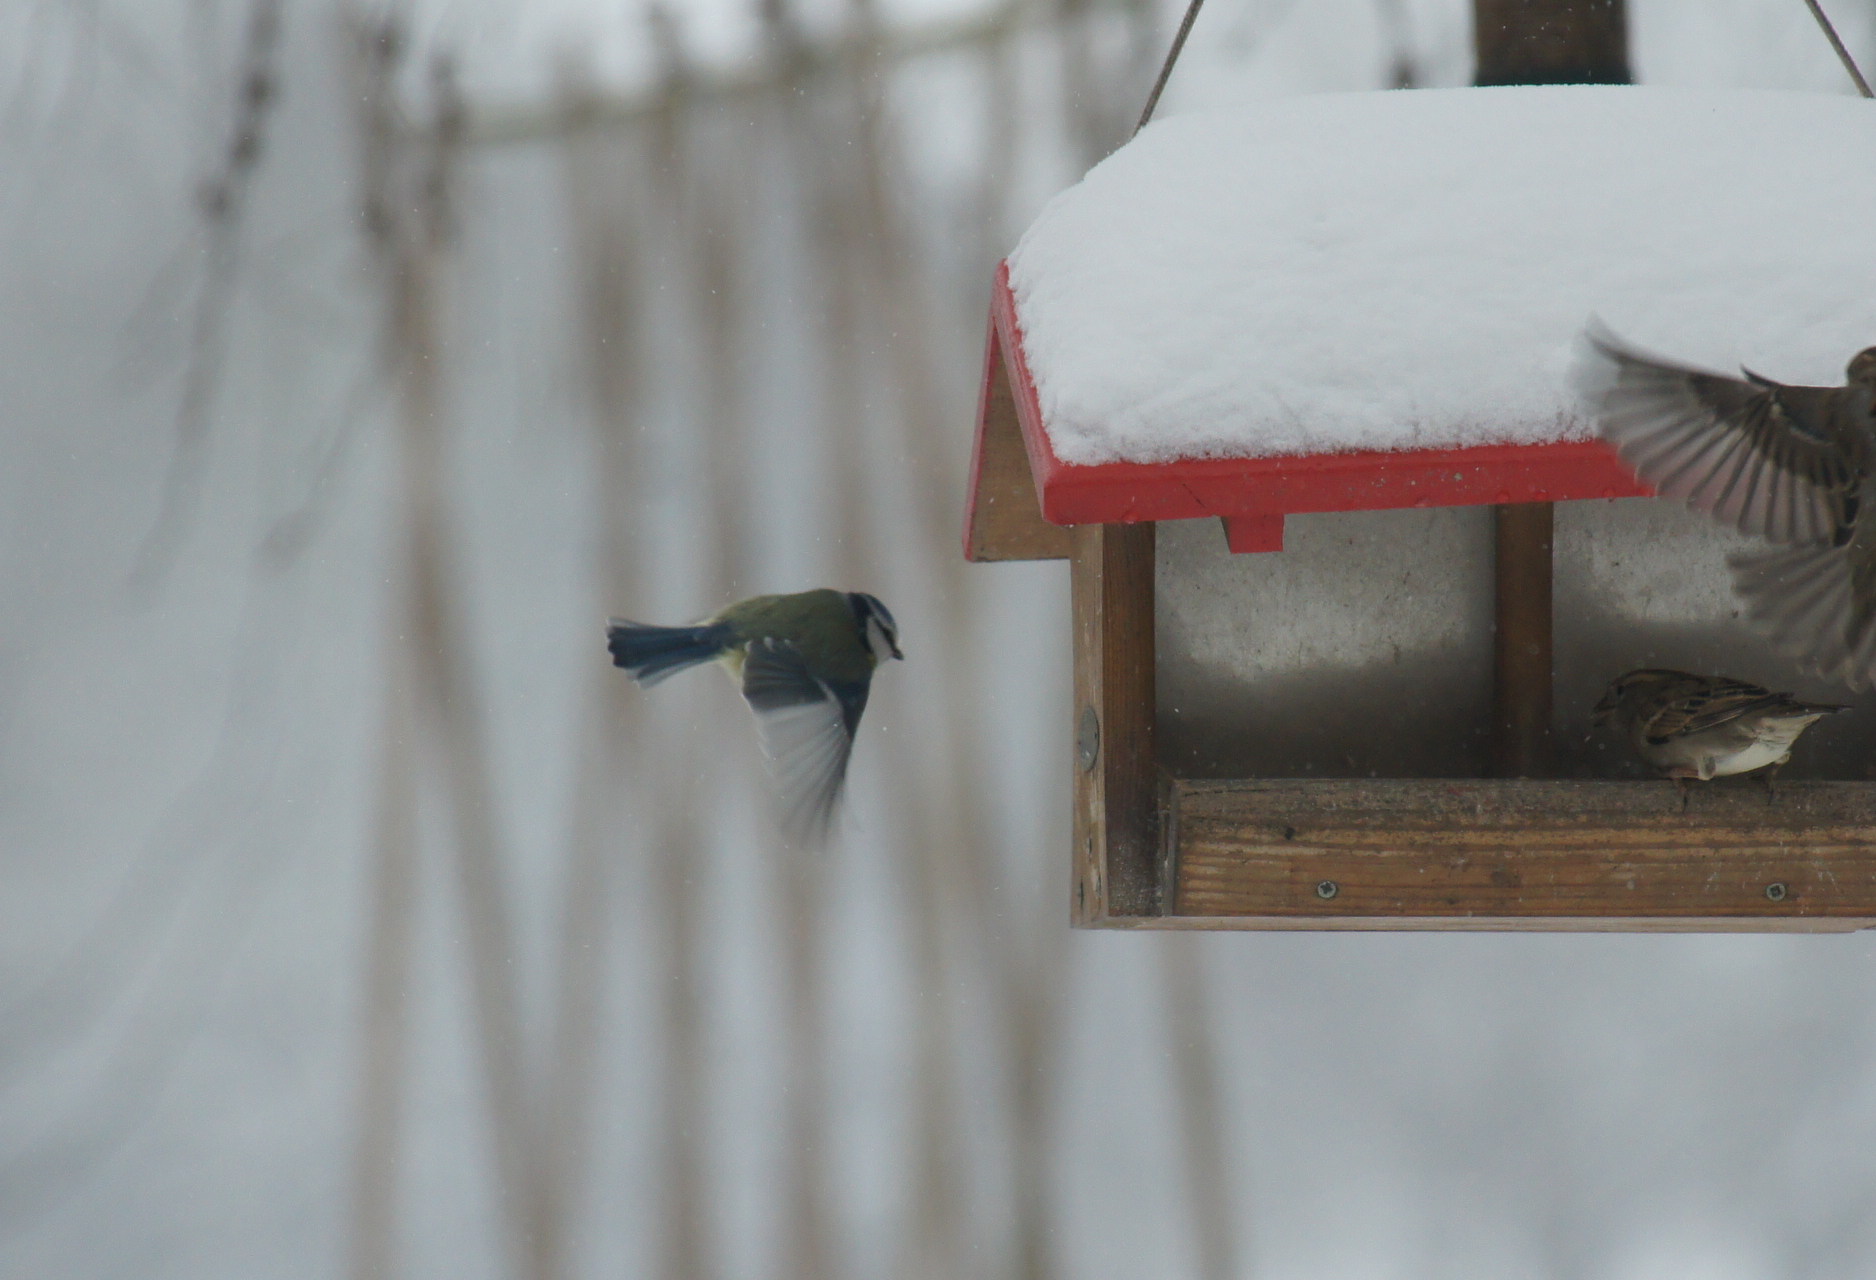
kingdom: Animalia
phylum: Chordata
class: Aves
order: Passeriformes
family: Paridae
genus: Cyanistes
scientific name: Cyanistes caeruleus
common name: Eurasian blue tit
